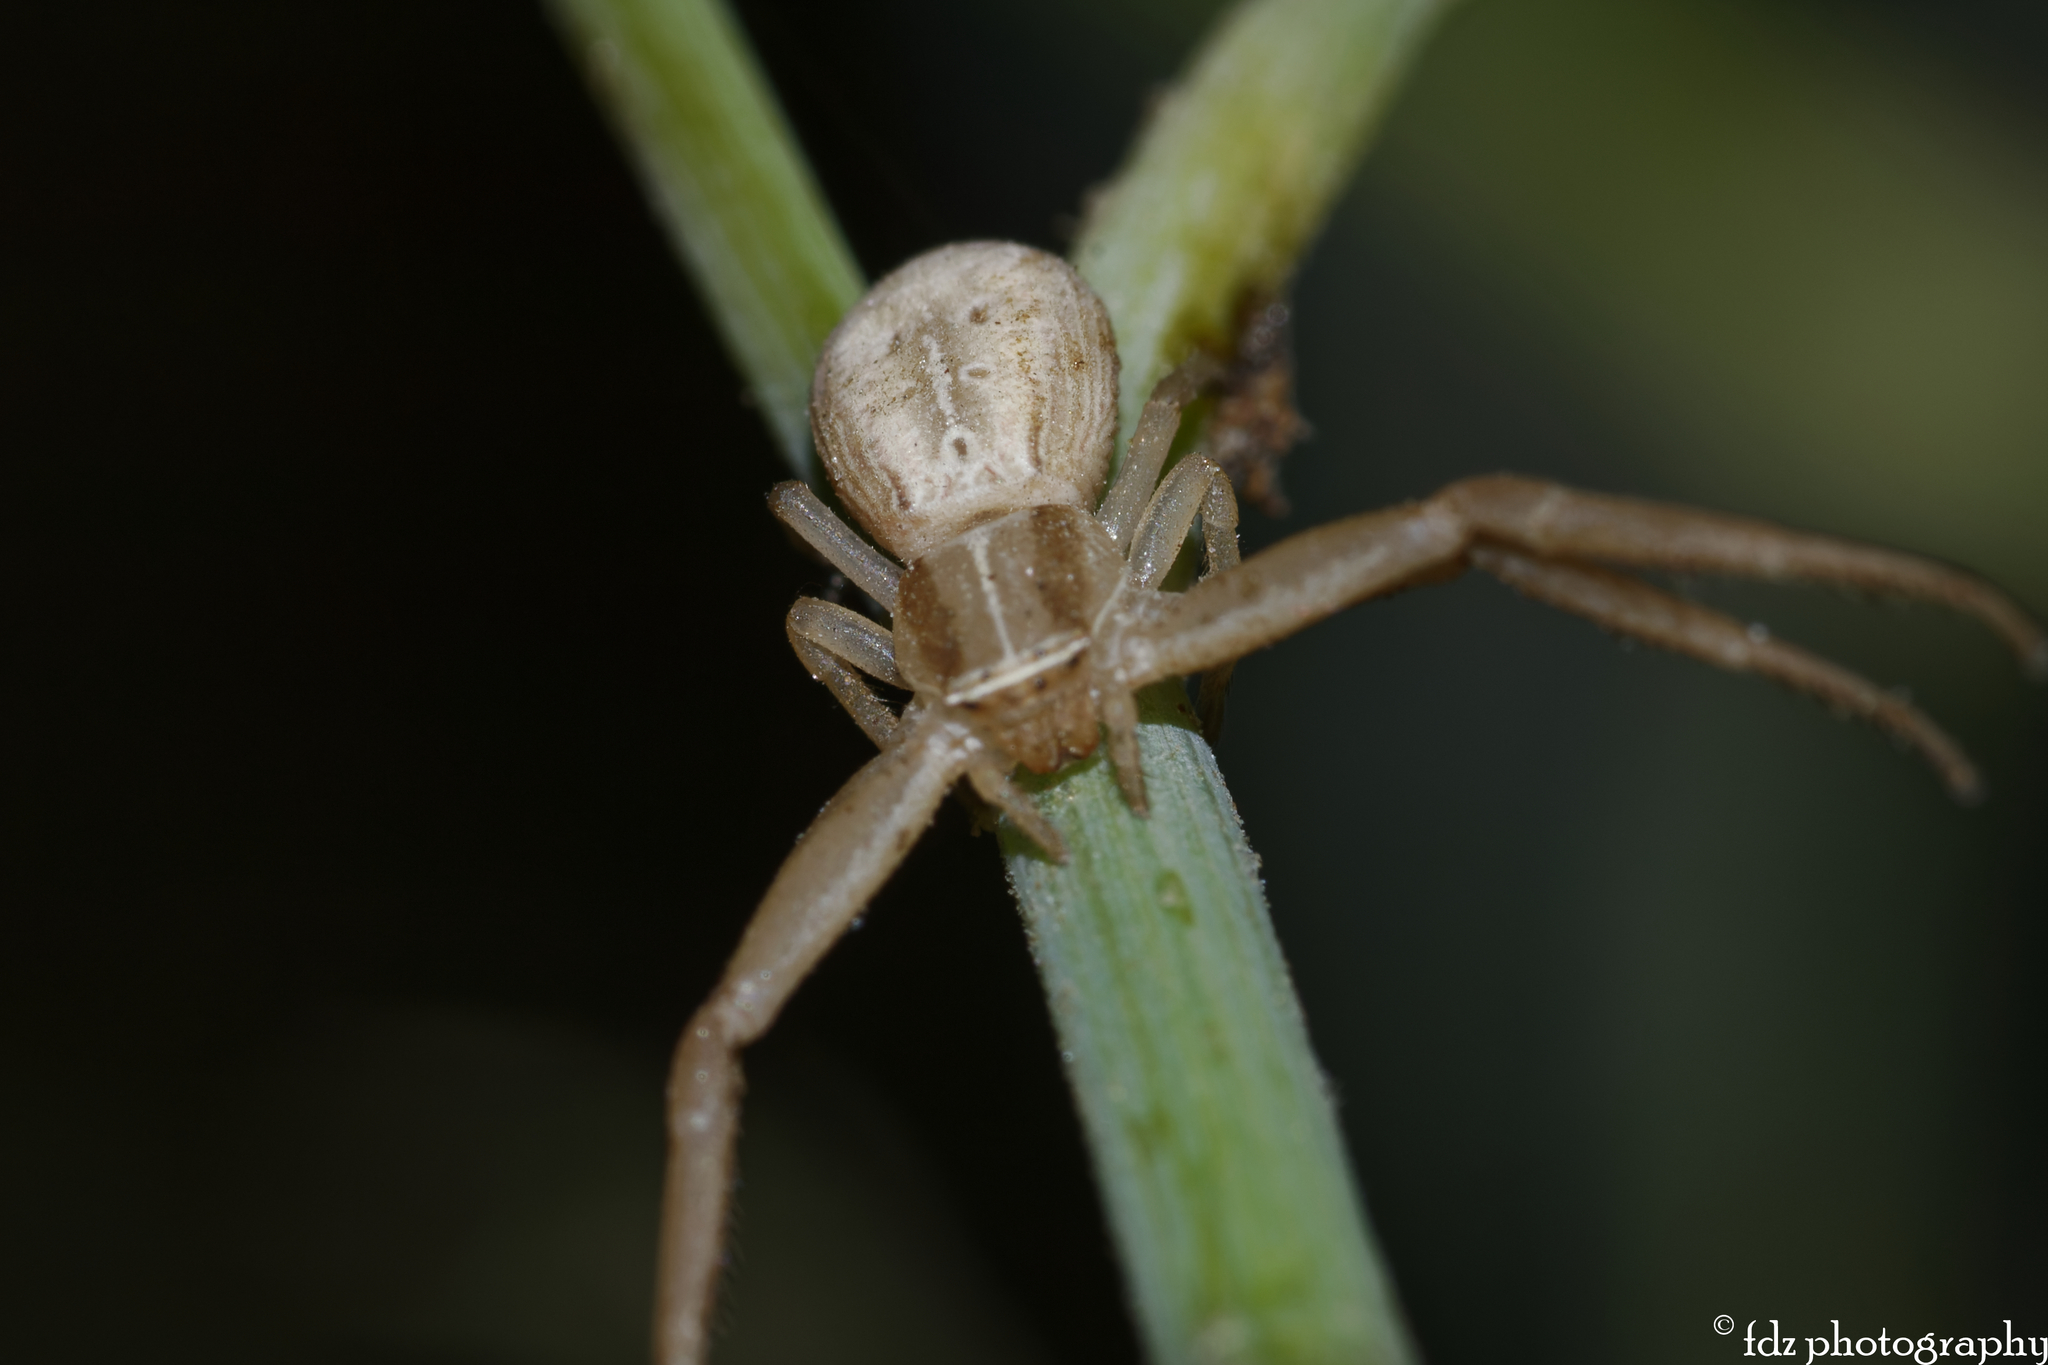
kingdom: Animalia
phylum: Arthropoda
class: Arachnida
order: Araneae
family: Thomisidae
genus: Runcinia
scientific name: Runcinia grammica
